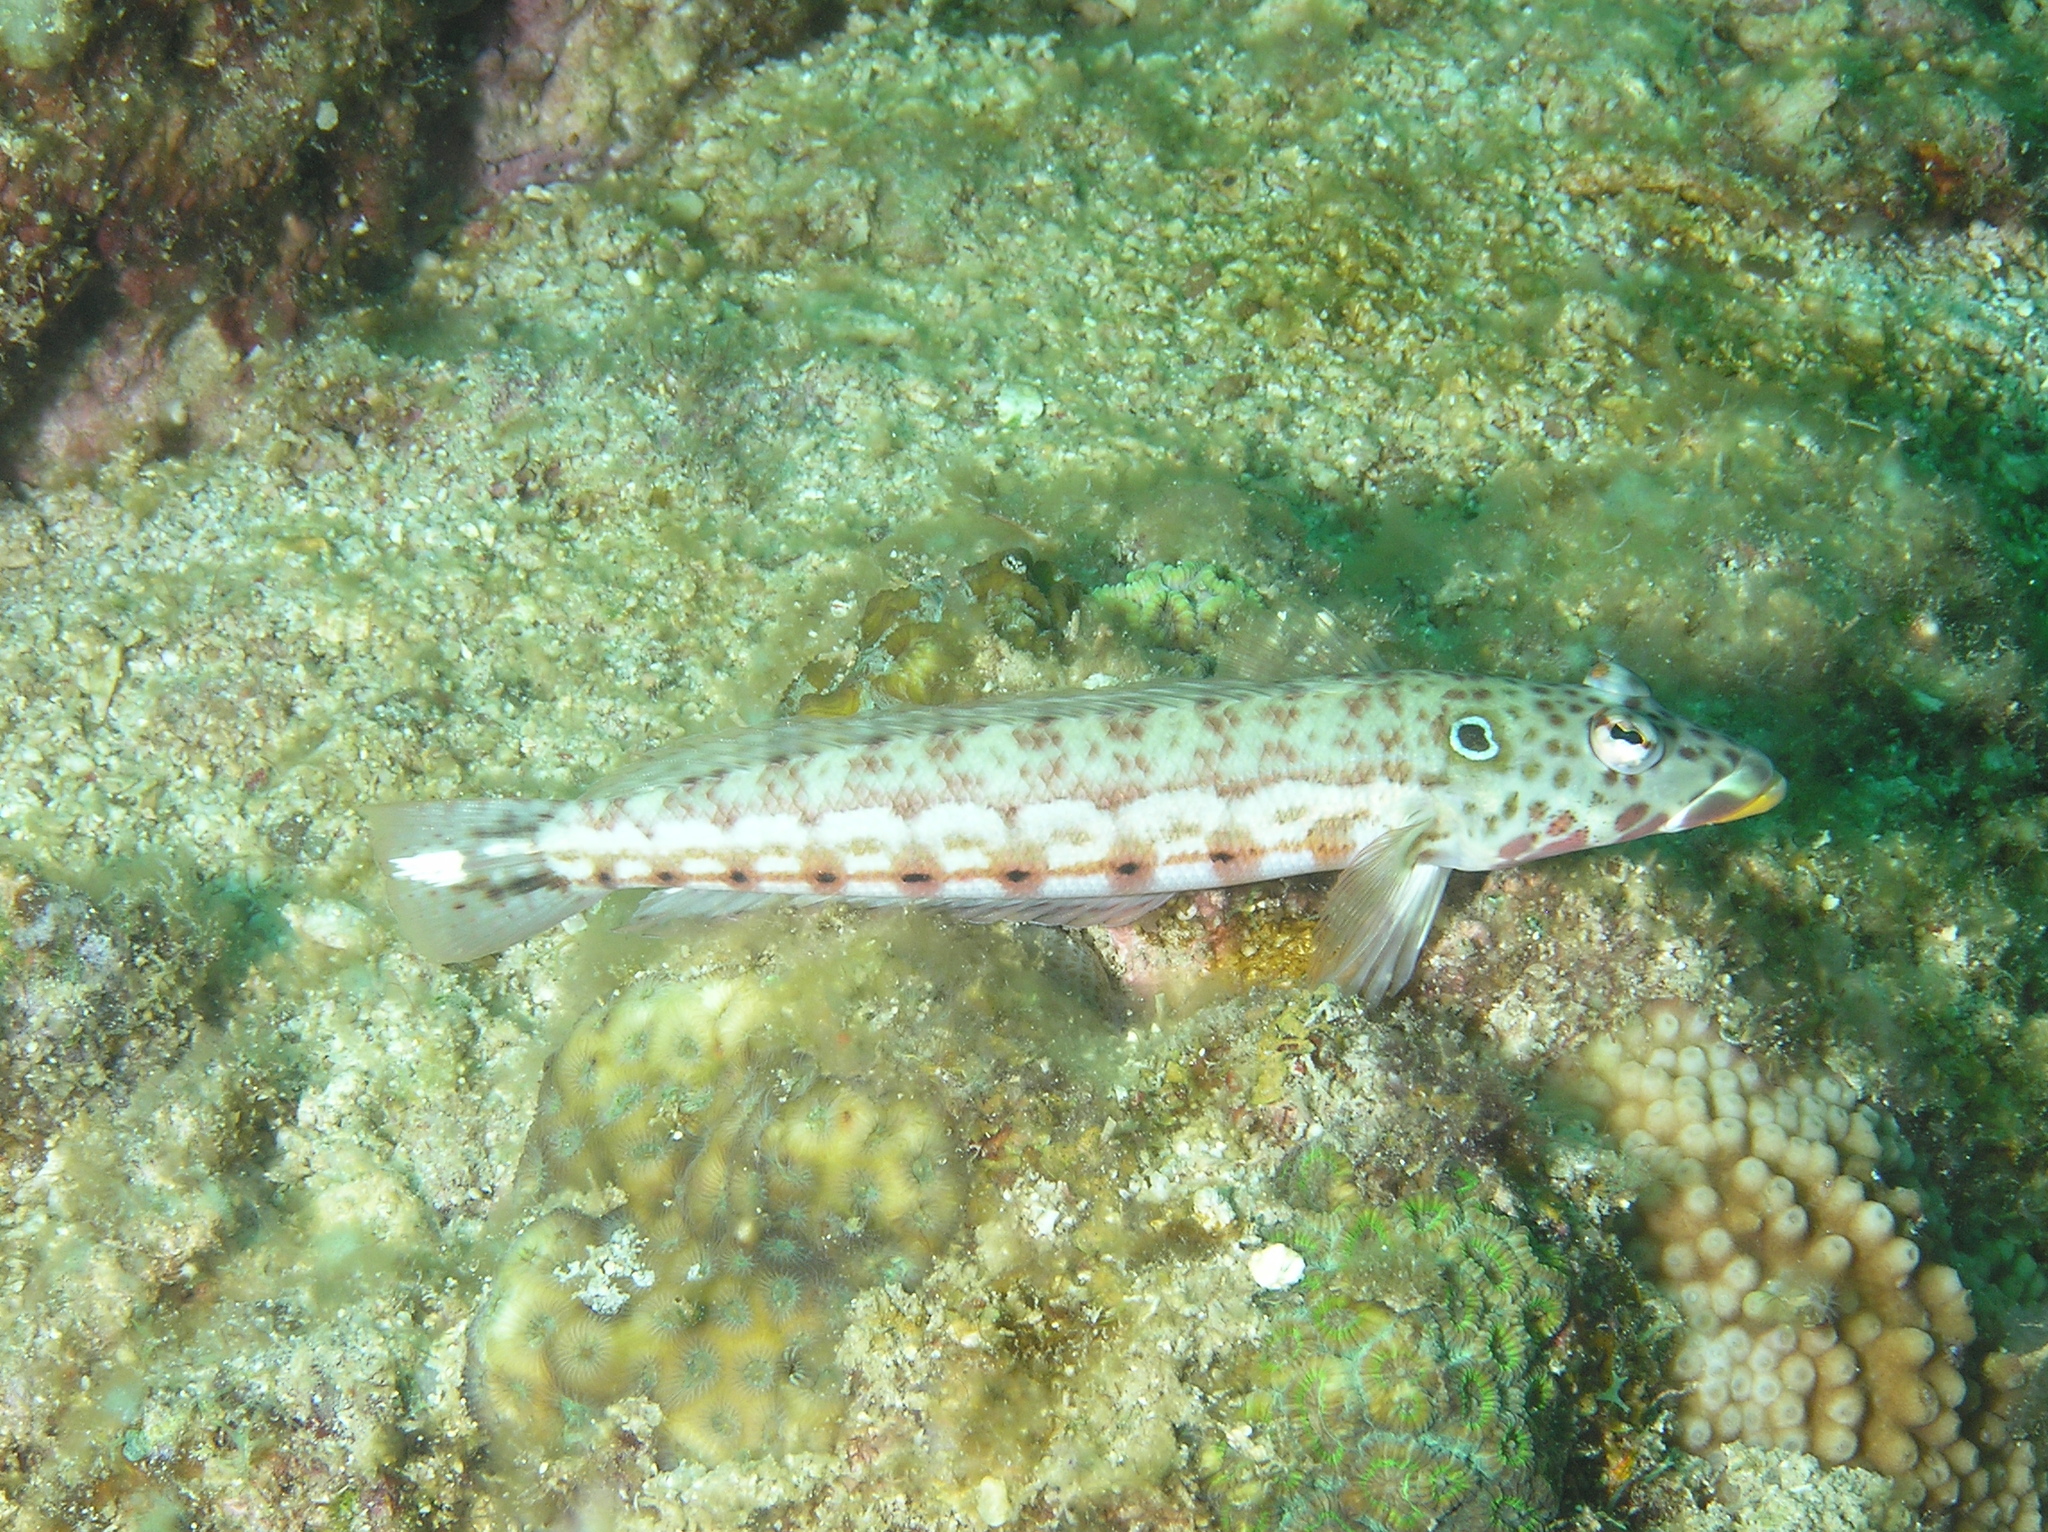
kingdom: Animalia
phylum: Chordata
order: Perciformes
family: Pinguipedidae
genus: Parapercis
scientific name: Parapercis clathrata
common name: Latticed sandperch
